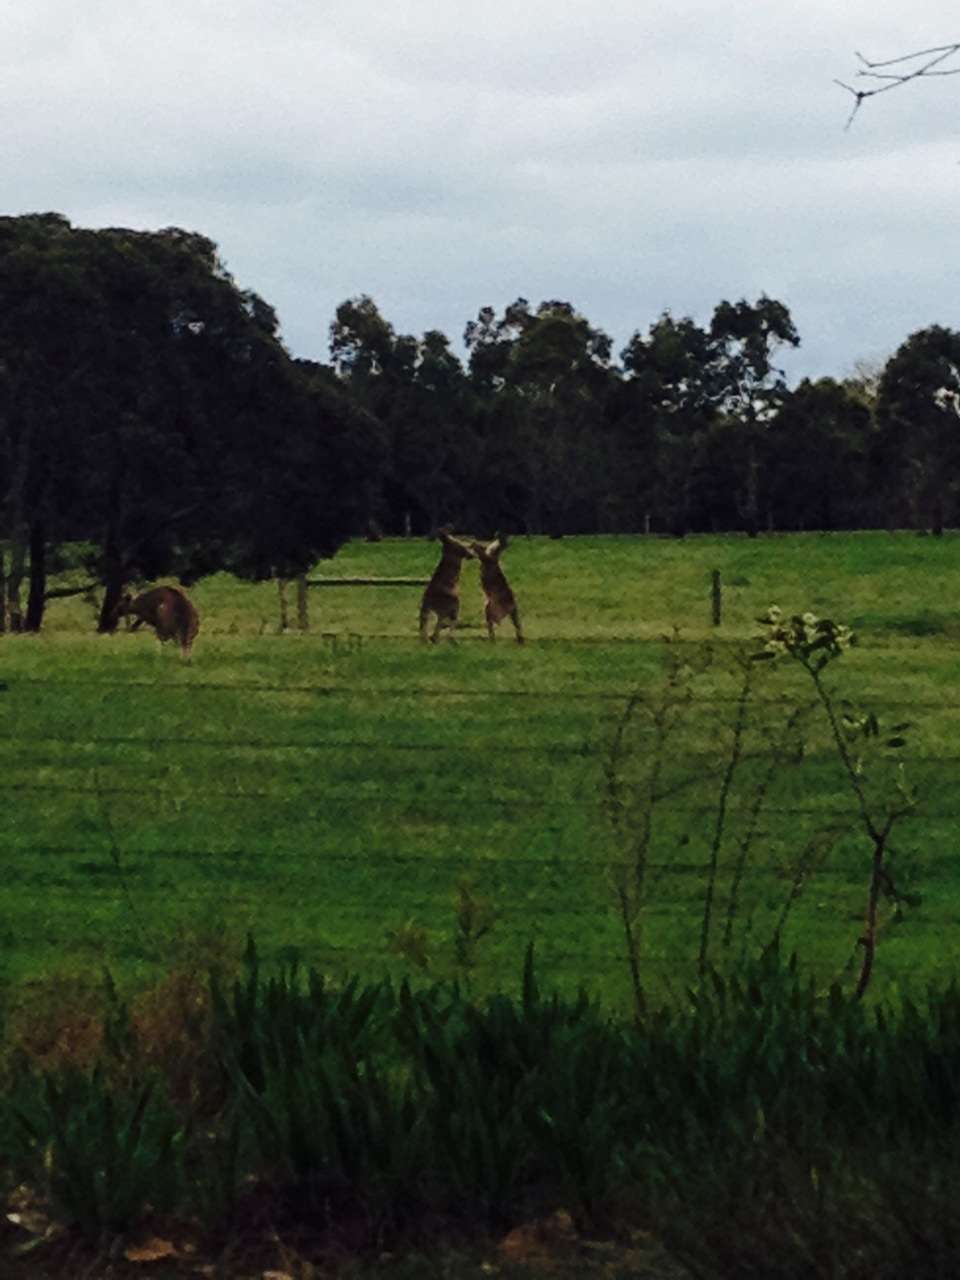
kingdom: Animalia
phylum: Chordata
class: Mammalia
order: Diprotodontia
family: Macropodidae
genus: Macropus
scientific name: Macropus giganteus
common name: Eastern grey kangaroo
